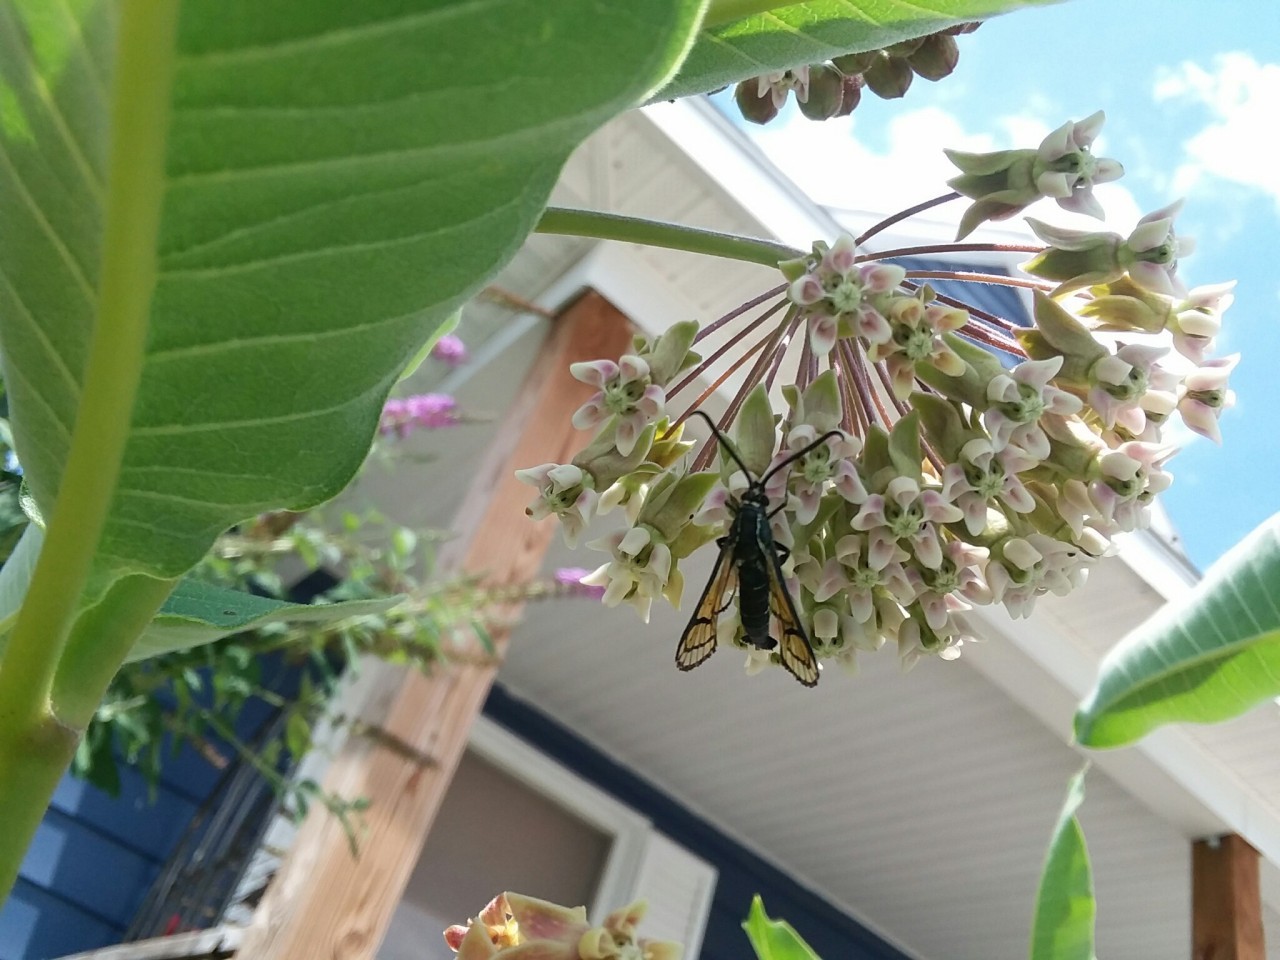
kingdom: Animalia
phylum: Arthropoda
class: Insecta
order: Lepidoptera
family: Sesiidae
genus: Synanthedon
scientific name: Synanthedon exitiosa
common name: Peachtree borer moth
